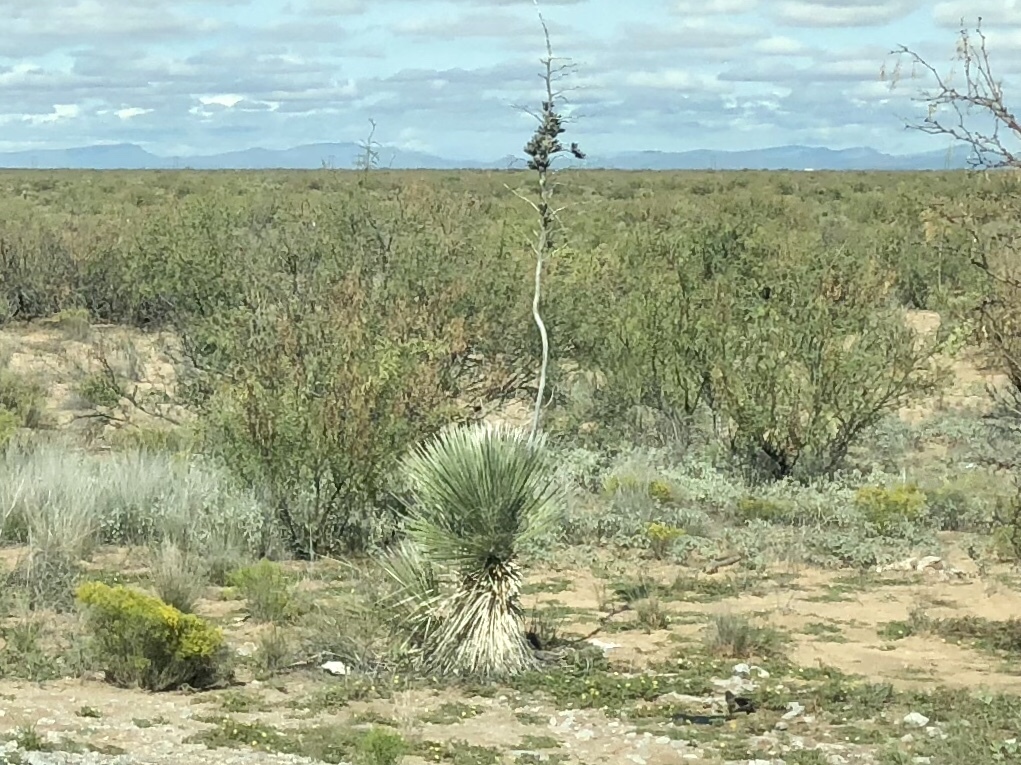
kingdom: Plantae
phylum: Tracheophyta
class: Liliopsida
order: Asparagales
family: Asparagaceae
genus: Yucca
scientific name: Yucca elata
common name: Palmella
